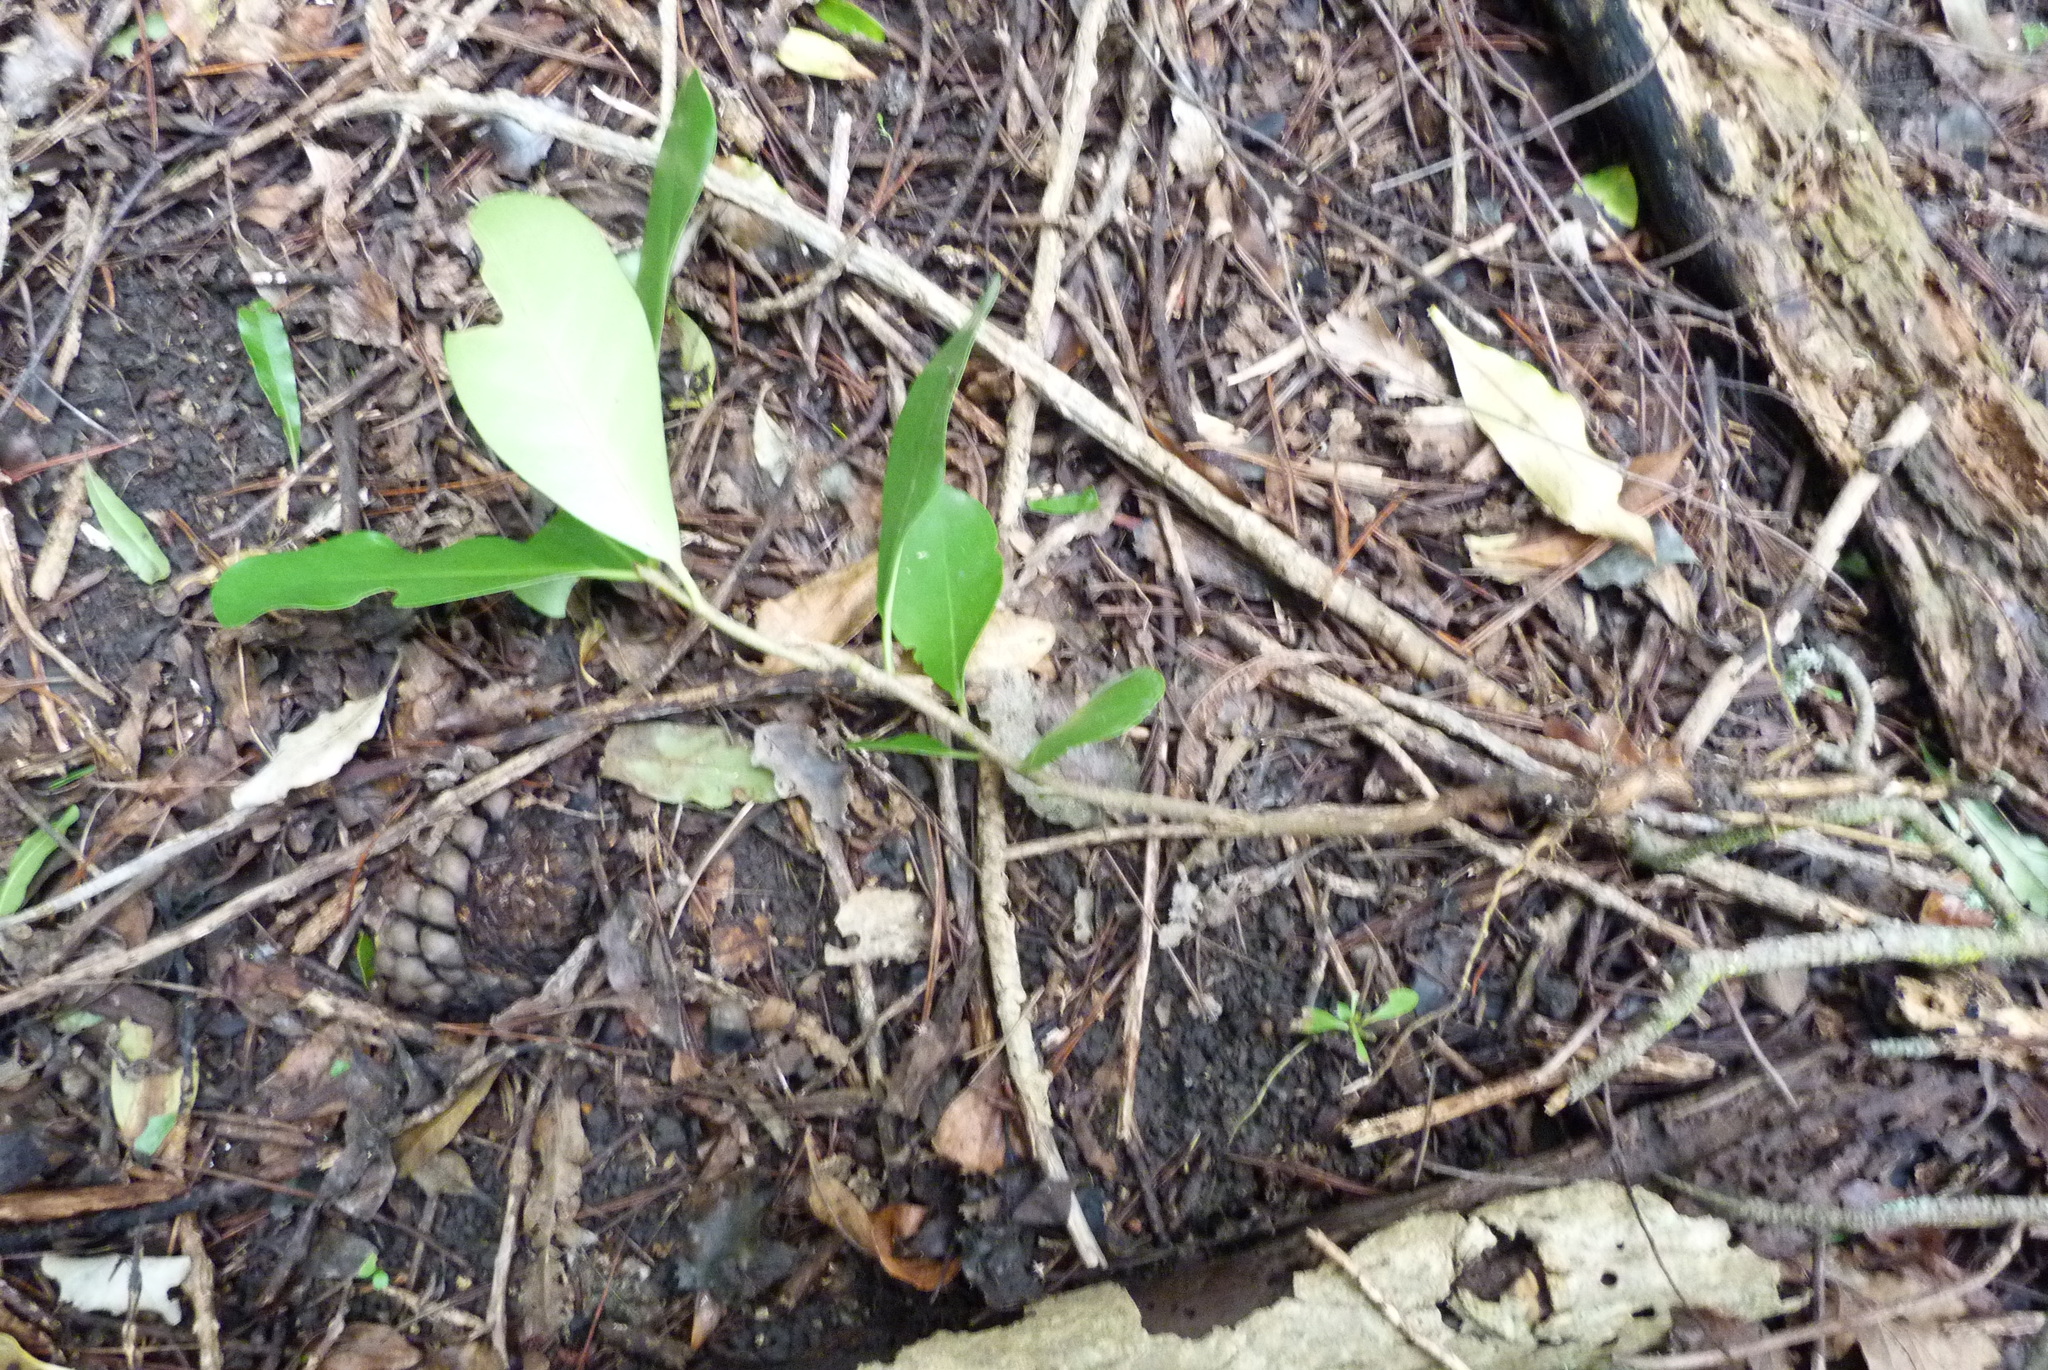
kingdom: Plantae
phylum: Tracheophyta
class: Magnoliopsida
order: Gentianales
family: Rubiaceae
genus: Coprosma
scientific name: Coprosma robusta
